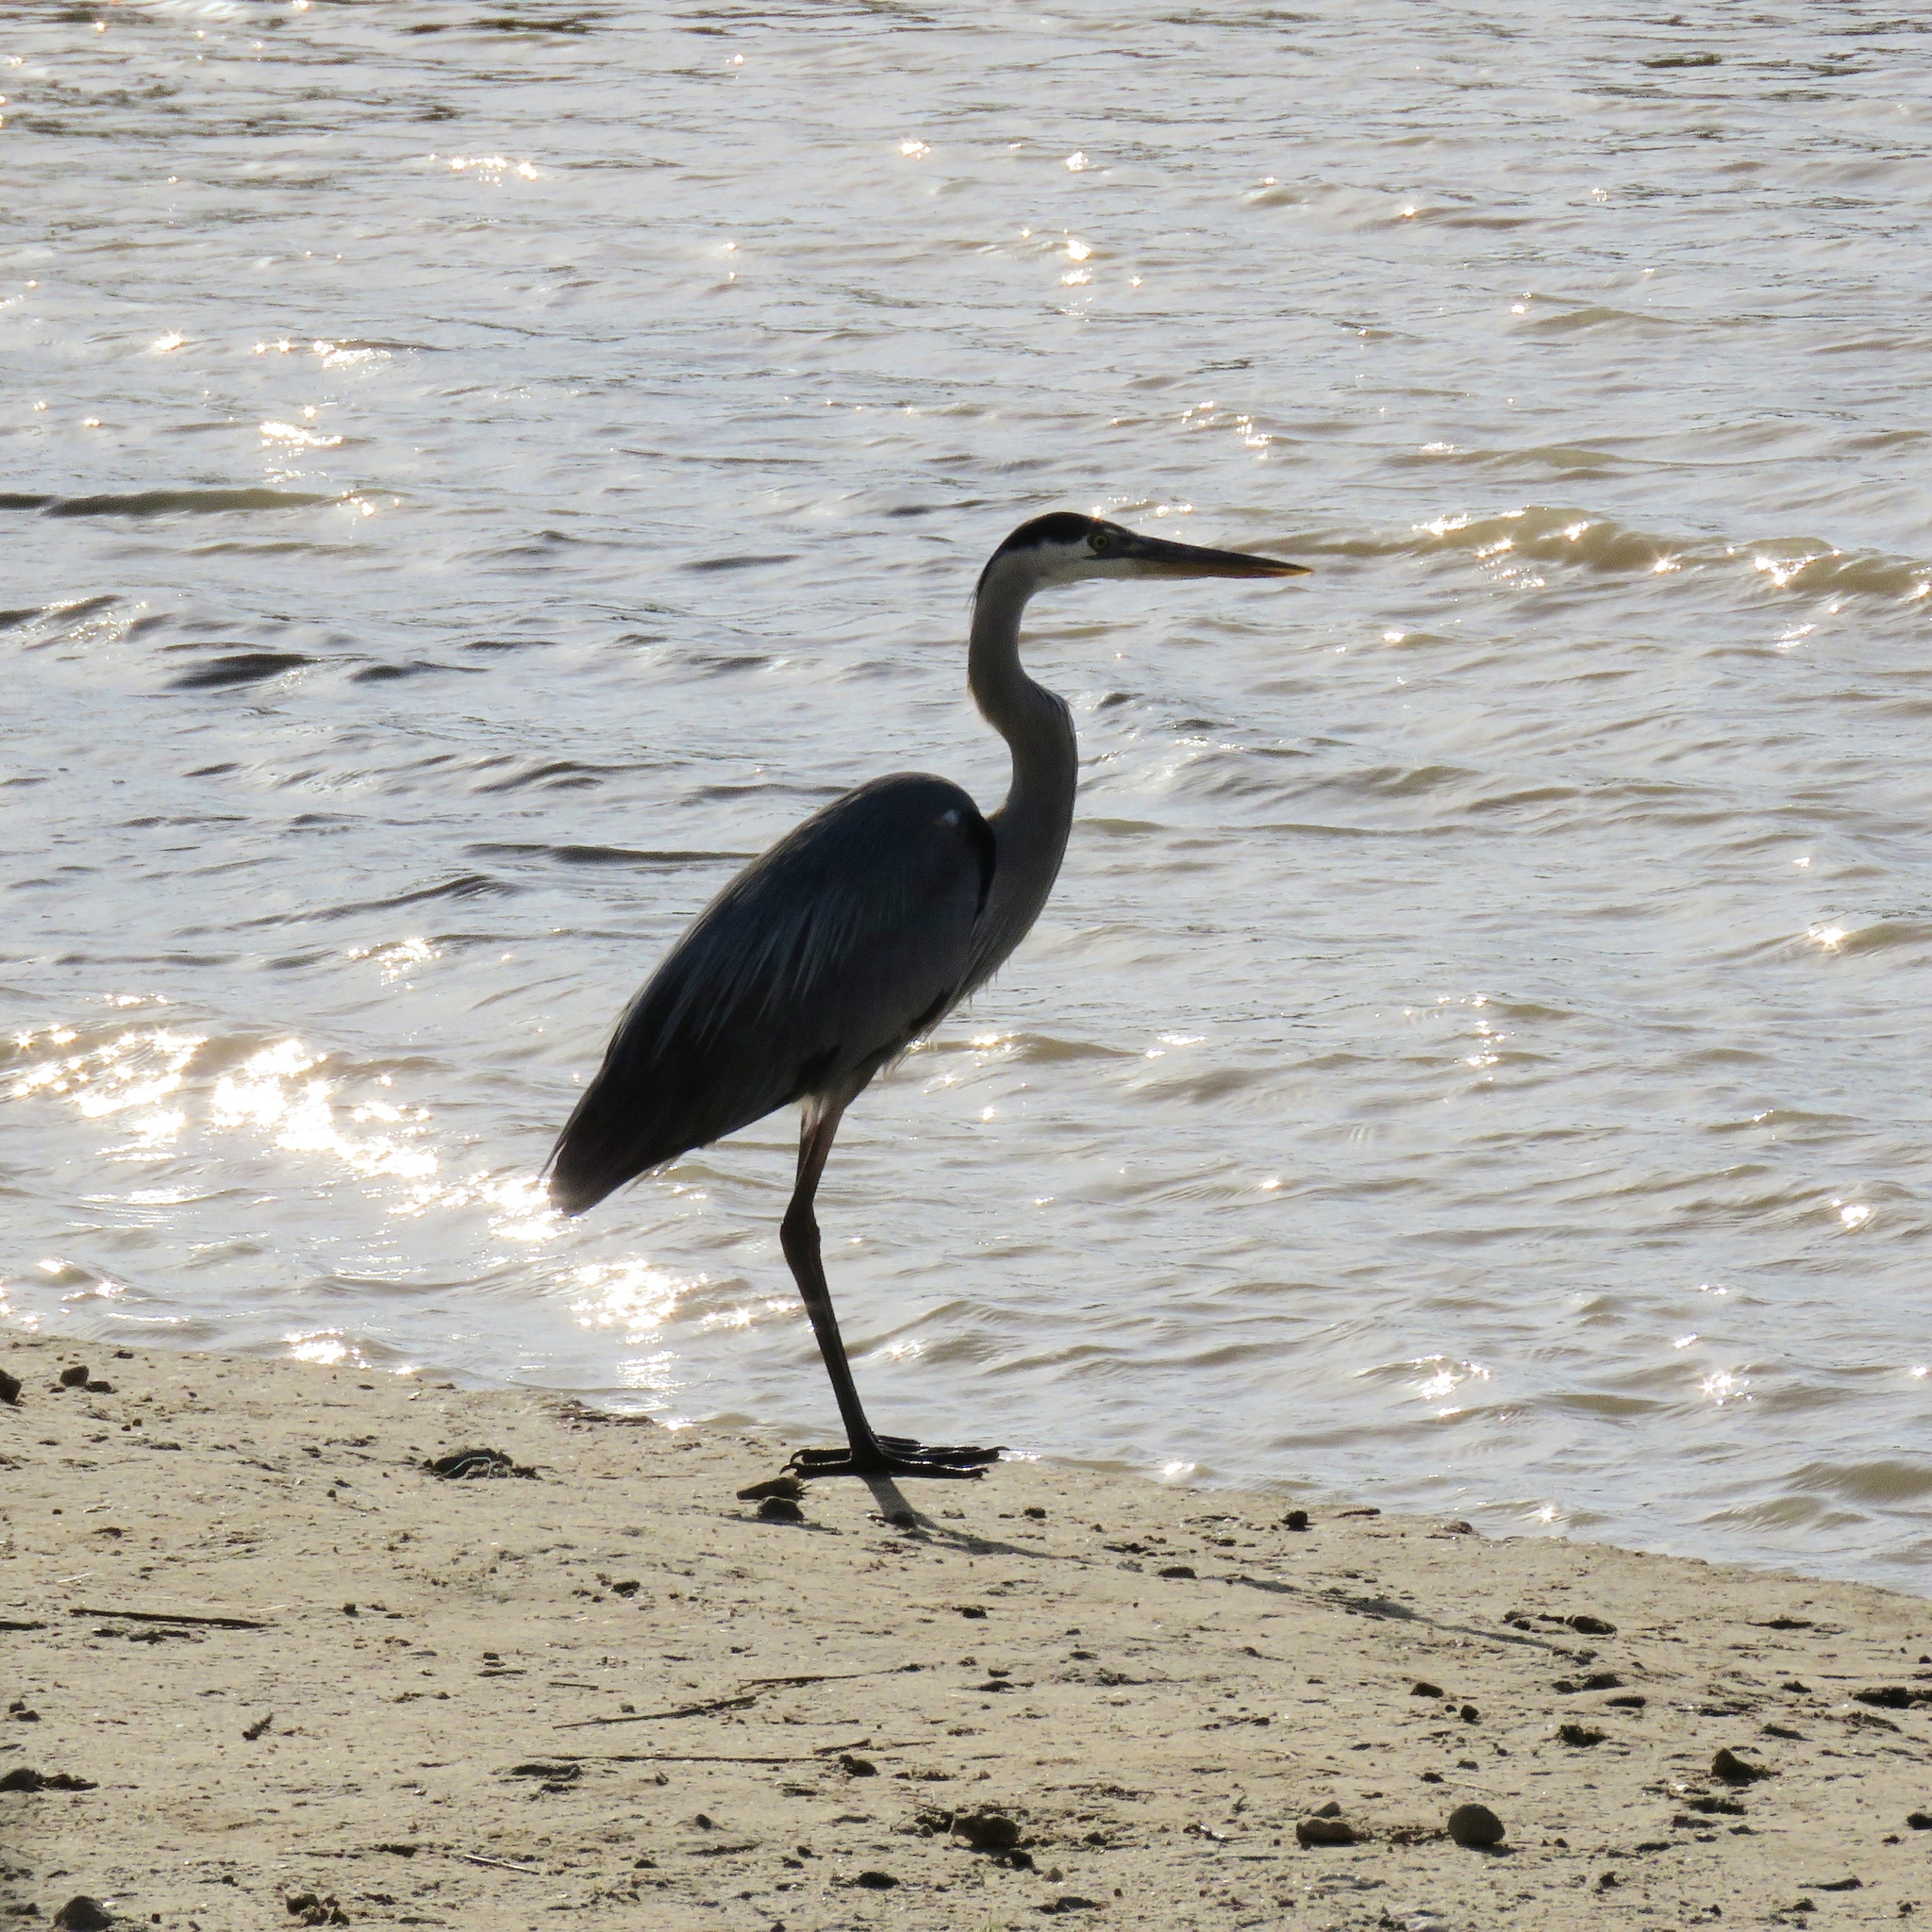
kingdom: Animalia
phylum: Chordata
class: Aves
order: Pelecaniformes
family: Ardeidae
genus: Ardea
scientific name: Ardea herodias
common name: Great blue heron
